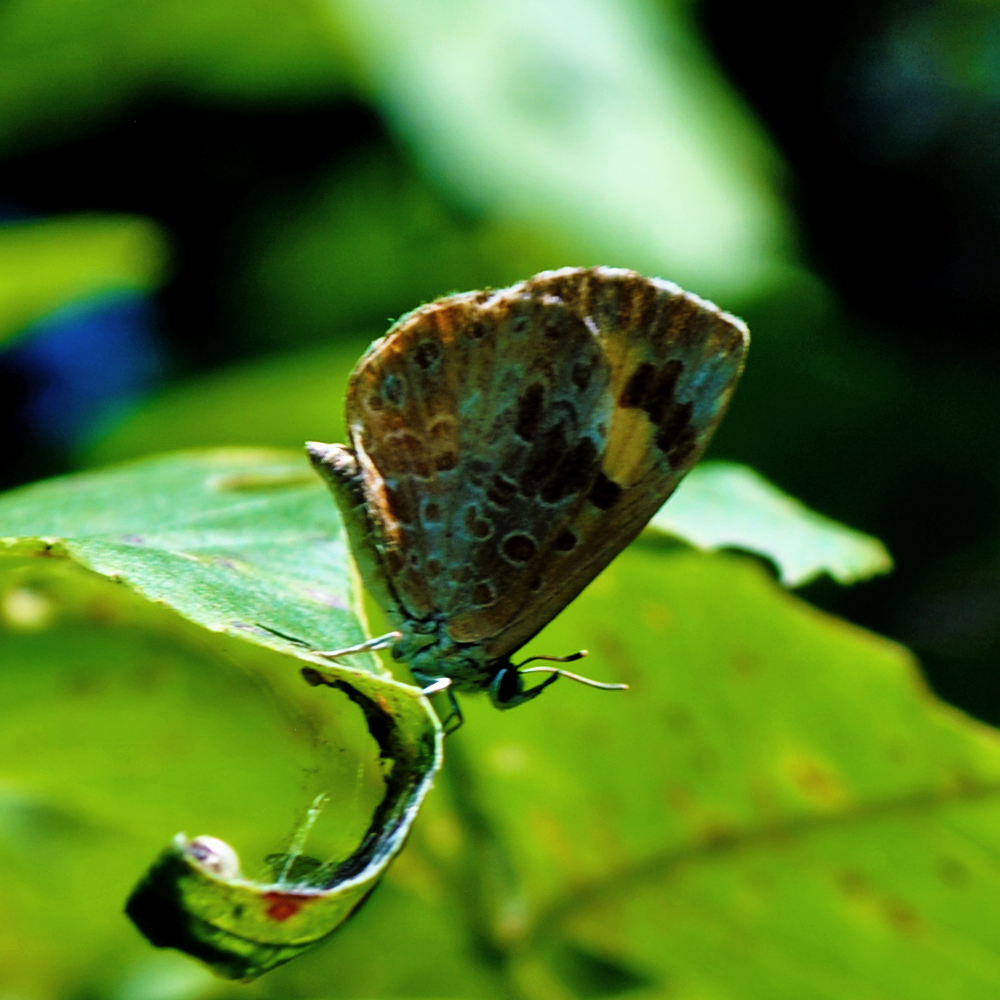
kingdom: Animalia
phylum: Arthropoda
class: Insecta
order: Lepidoptera
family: Lycaenidae
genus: Feniseca
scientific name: Feniseca tarquinius
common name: Harvester
